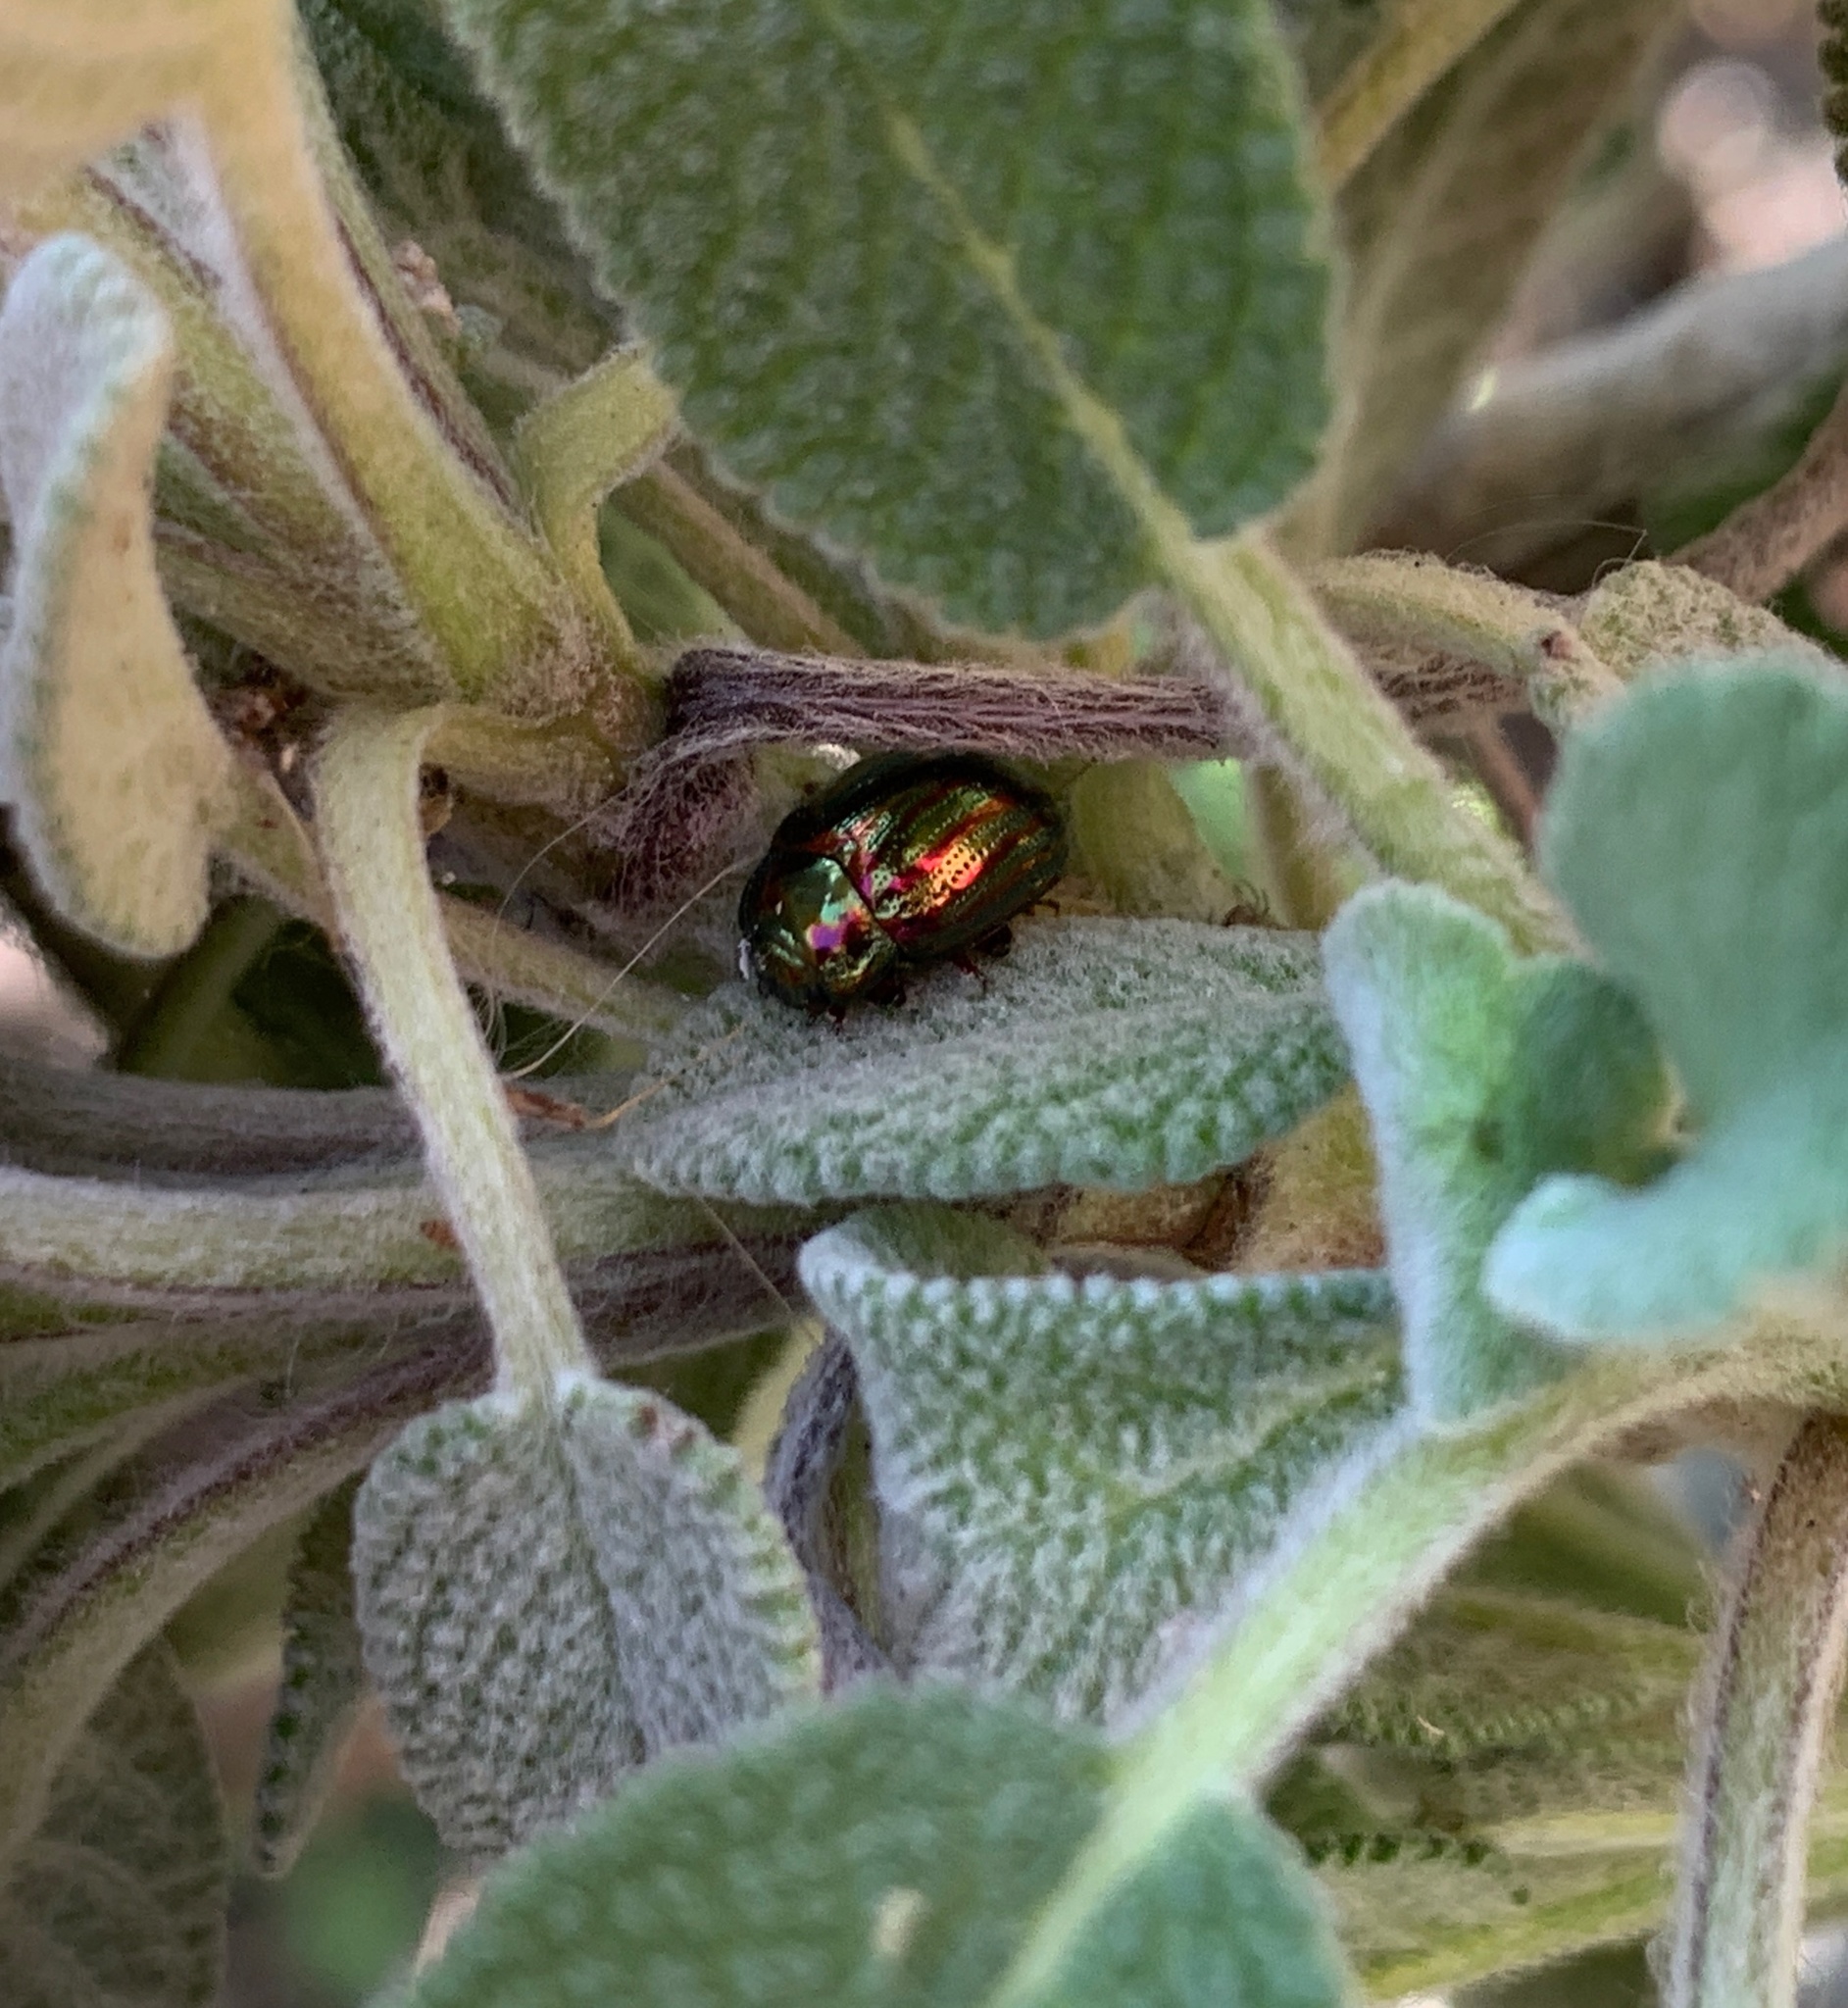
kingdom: Animalia
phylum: Arthropoda
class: Insecta
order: Coleoptera
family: Chrysomelidae
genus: Chrysolina
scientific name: Chrysolina americana
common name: Rosemary beetle
